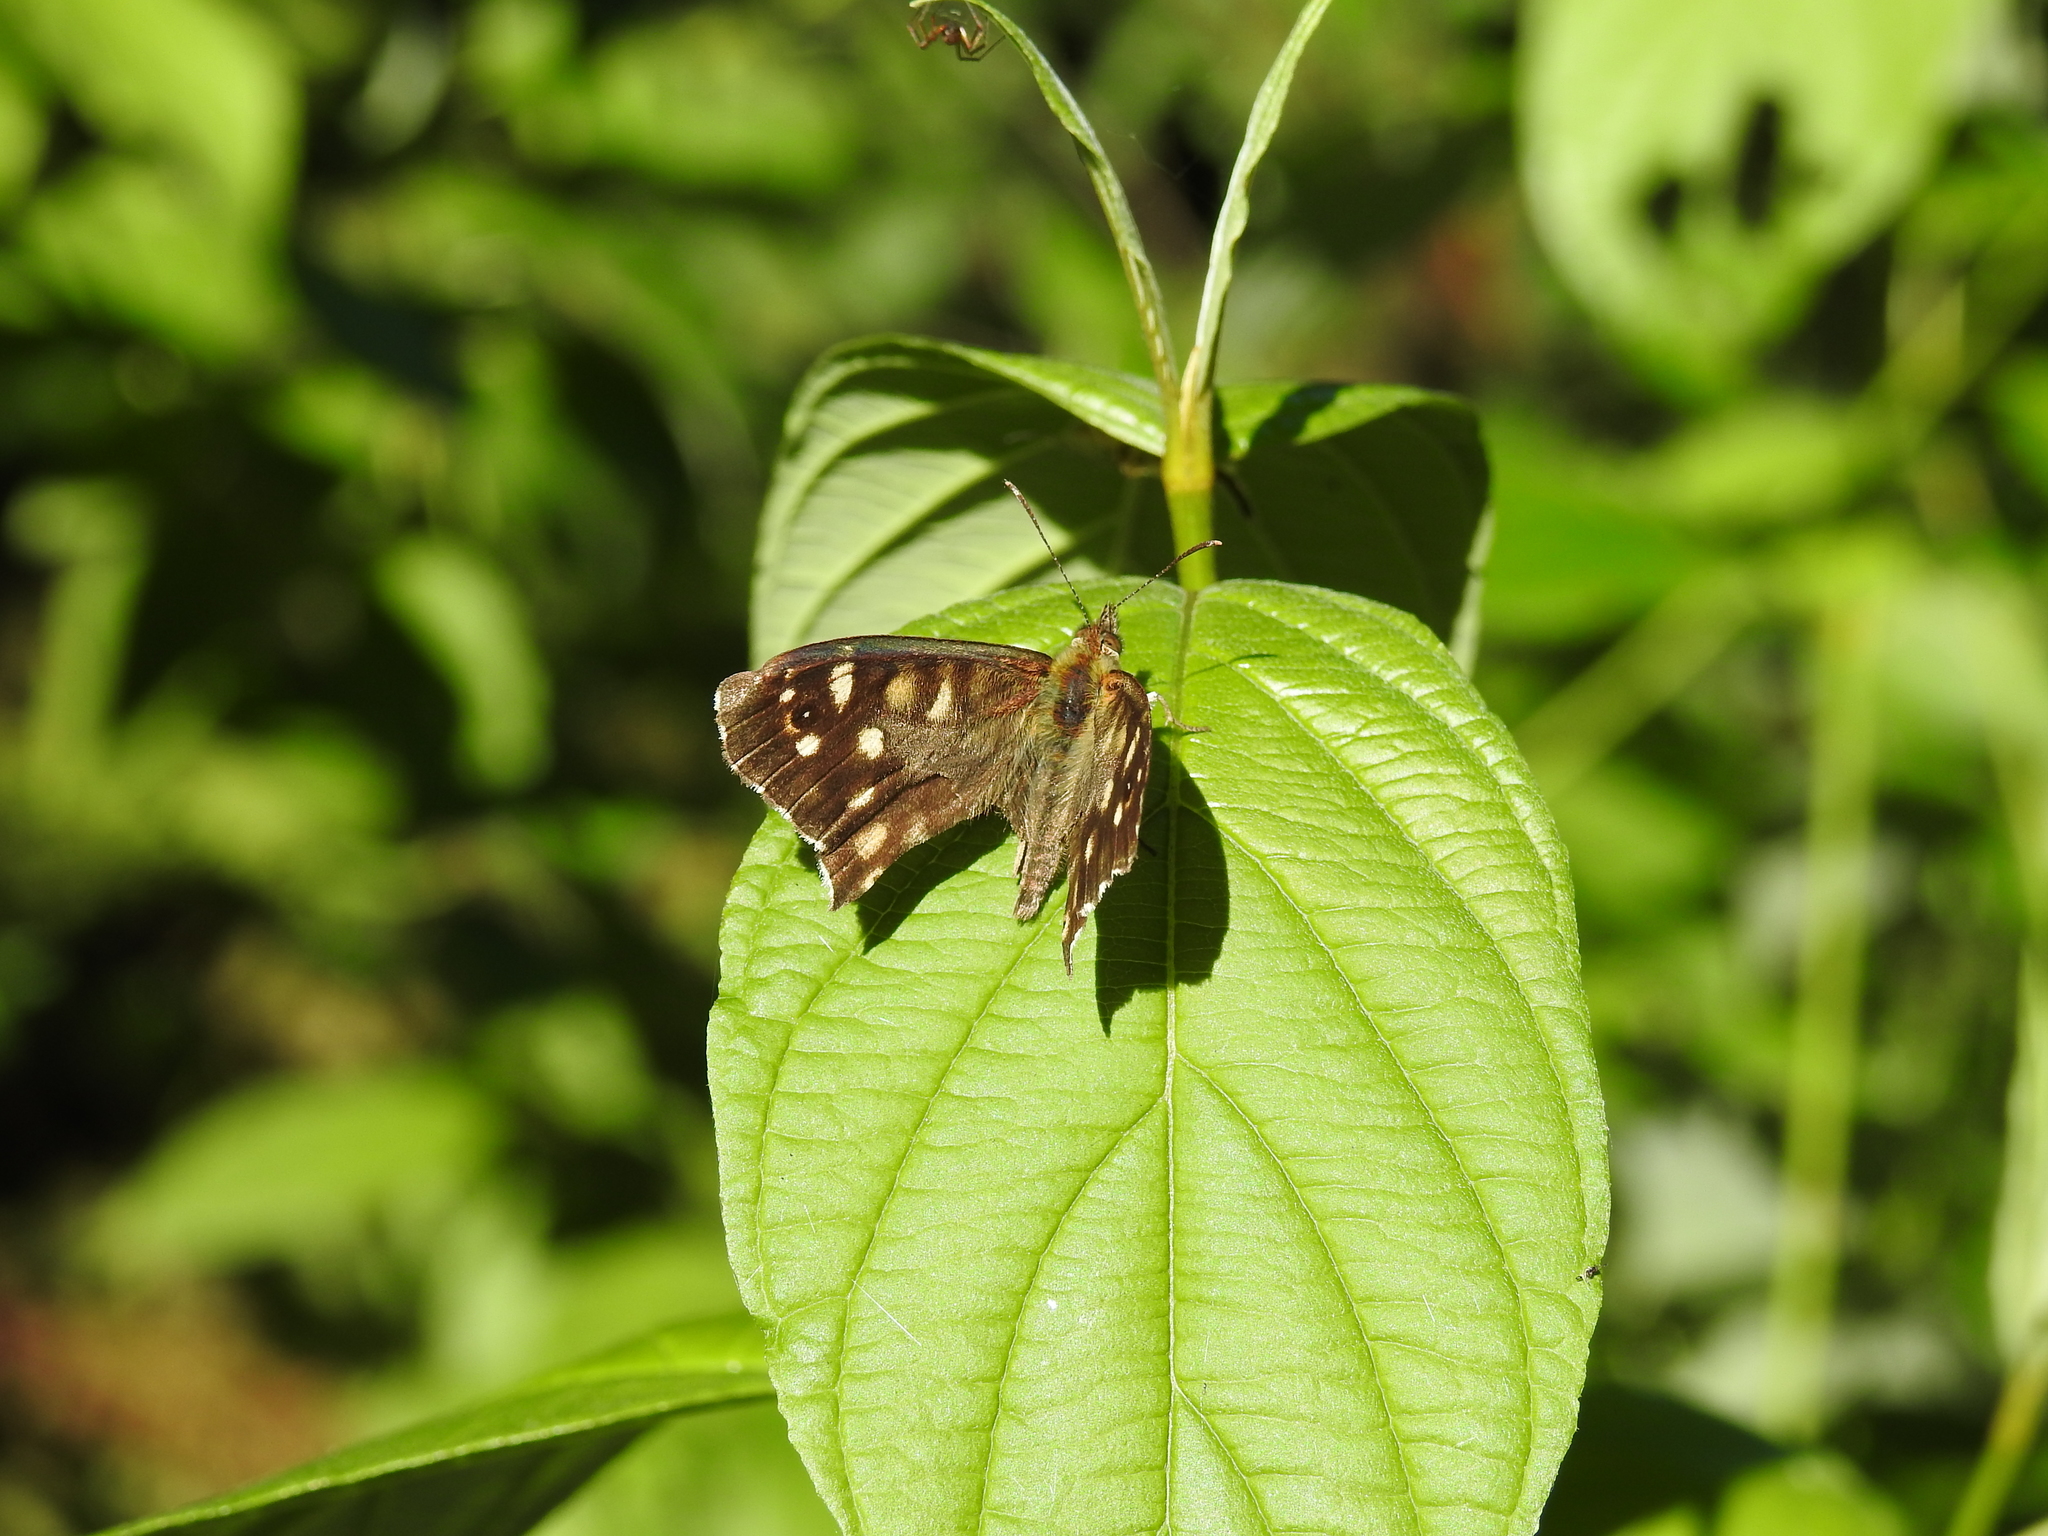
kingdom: Animalia
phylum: Arthropoda
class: Insecta
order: Lepidoptera
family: Nymphalidae
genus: Pararge
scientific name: Pararge aegeria
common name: Speckled wood
